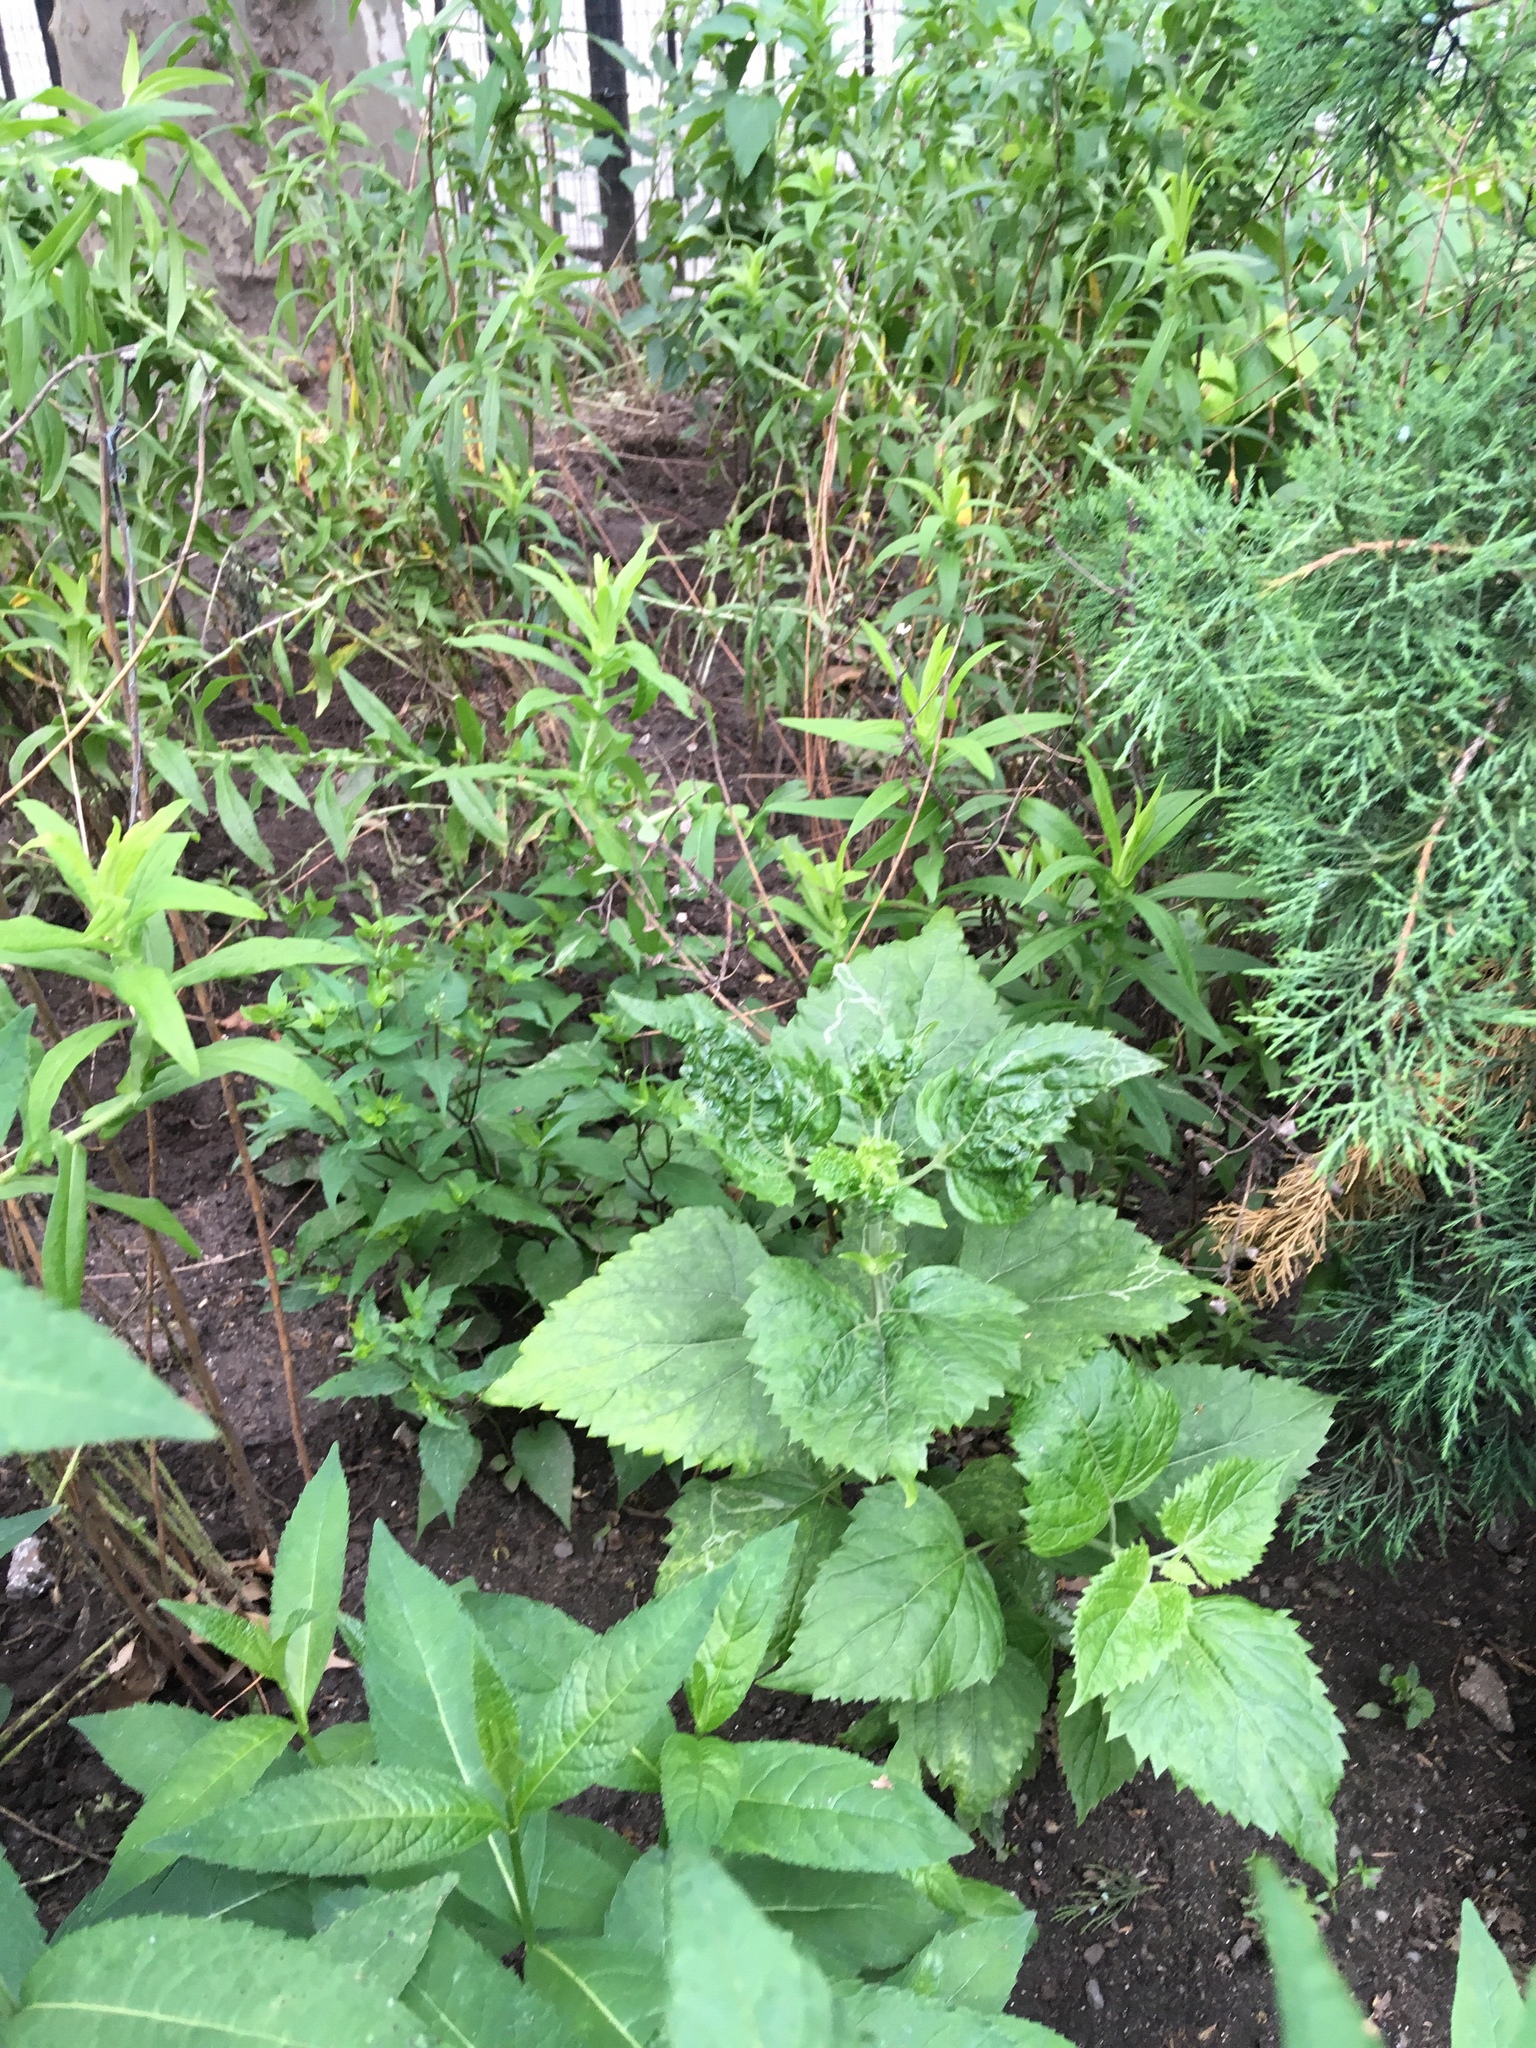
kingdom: Plantae
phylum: Tracheophyta
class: Magnoliopsida
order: Asterales
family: Asteraceae
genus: Ageratina
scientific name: Ageratina altissima
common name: White snakeroot
